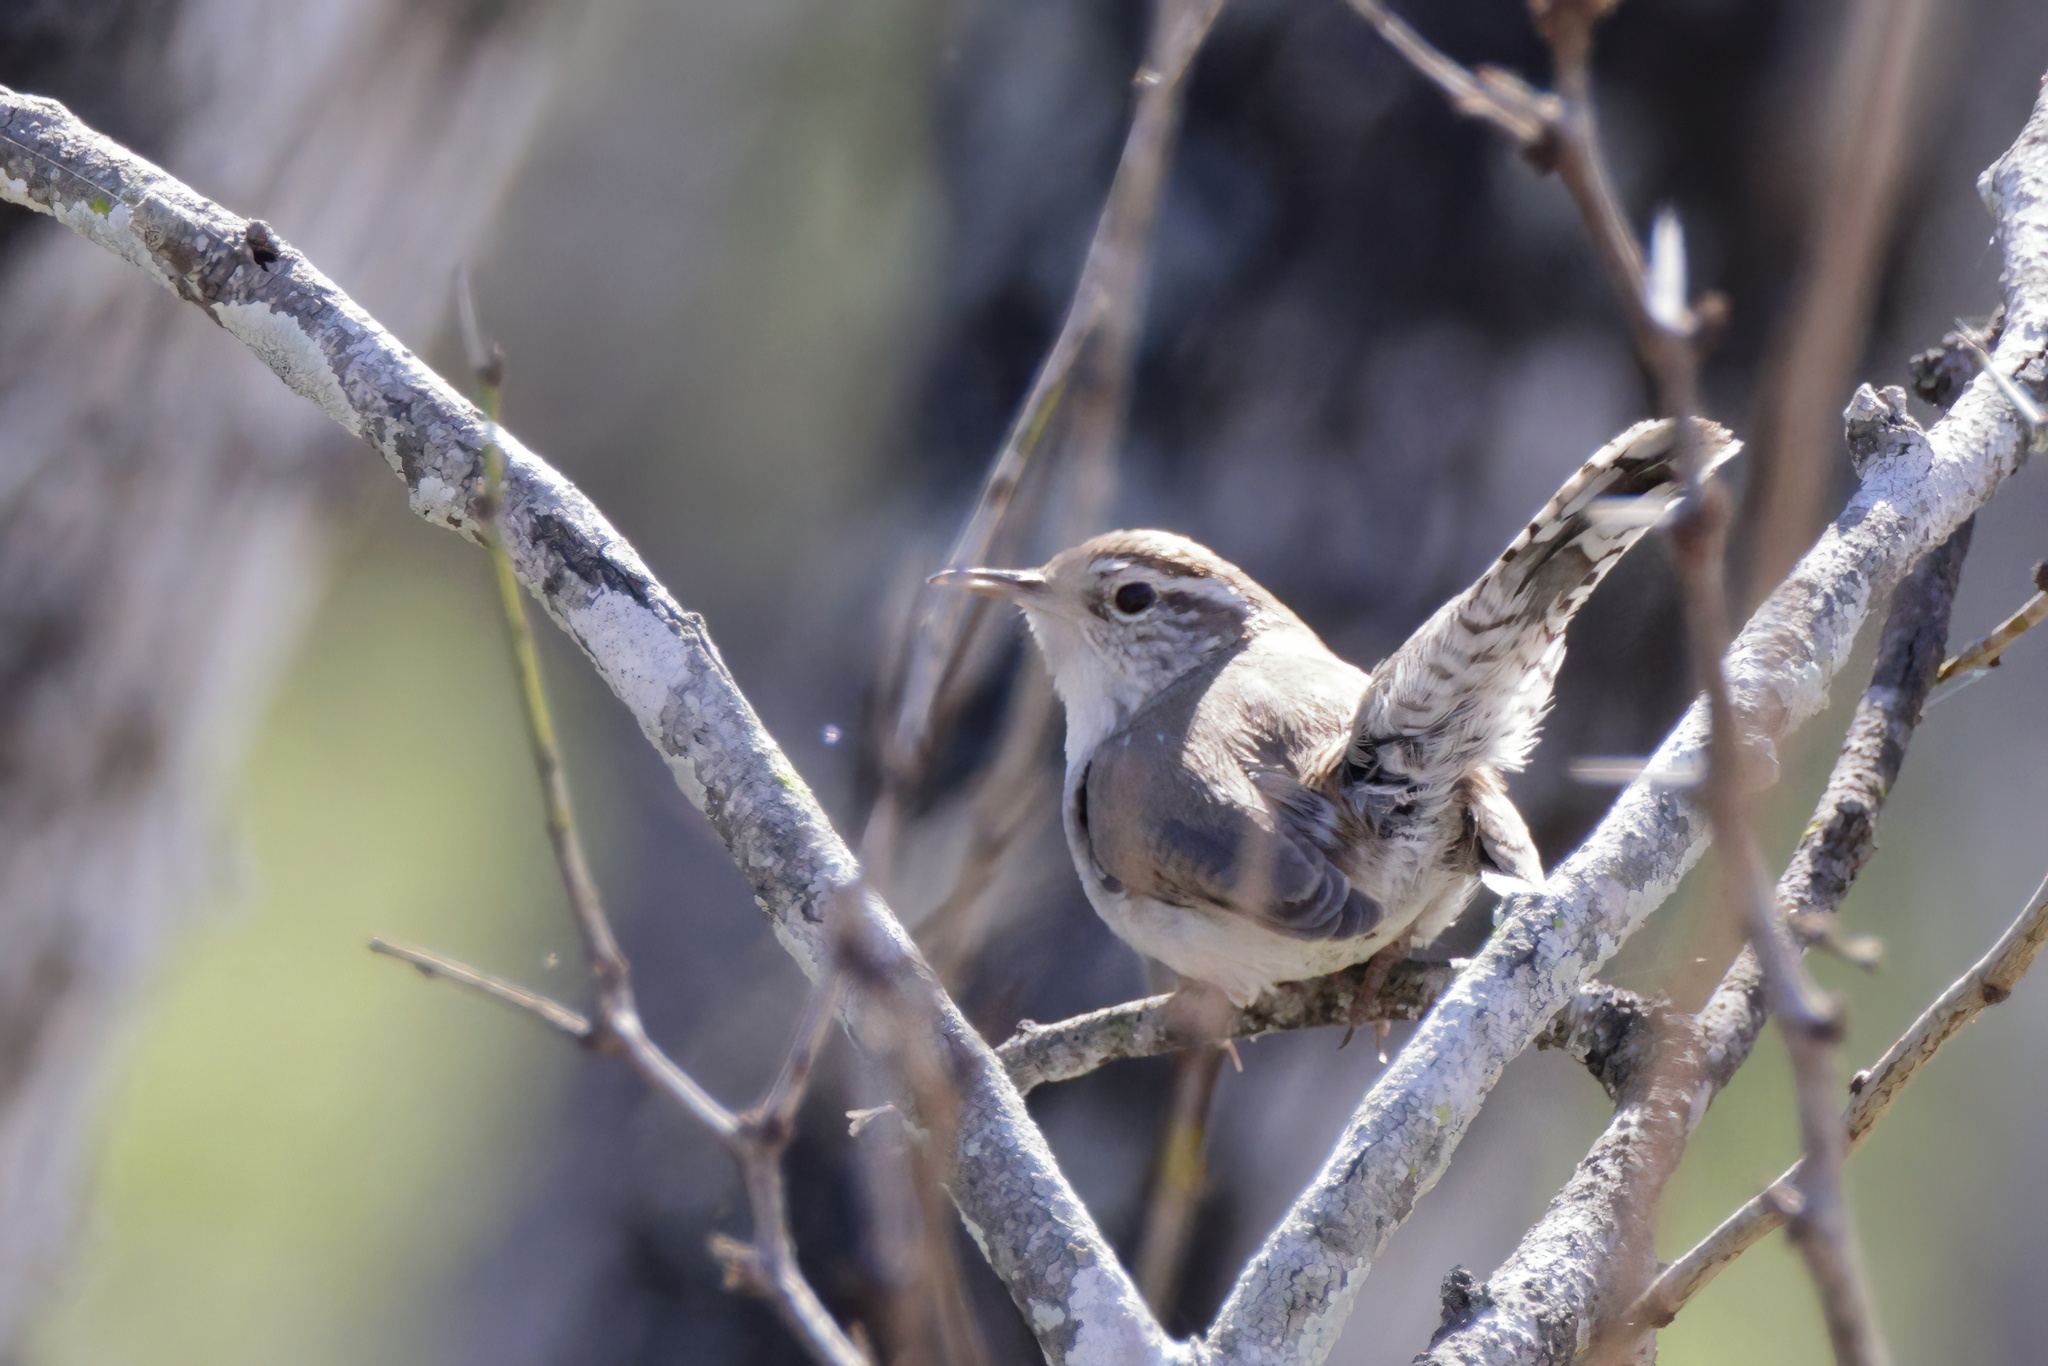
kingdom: Animalia
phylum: Chordata
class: Aves
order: Passeriformes
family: Troglodytidae
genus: Thryomanes
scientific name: Thryomanes bewickii
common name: Bewick's wren
